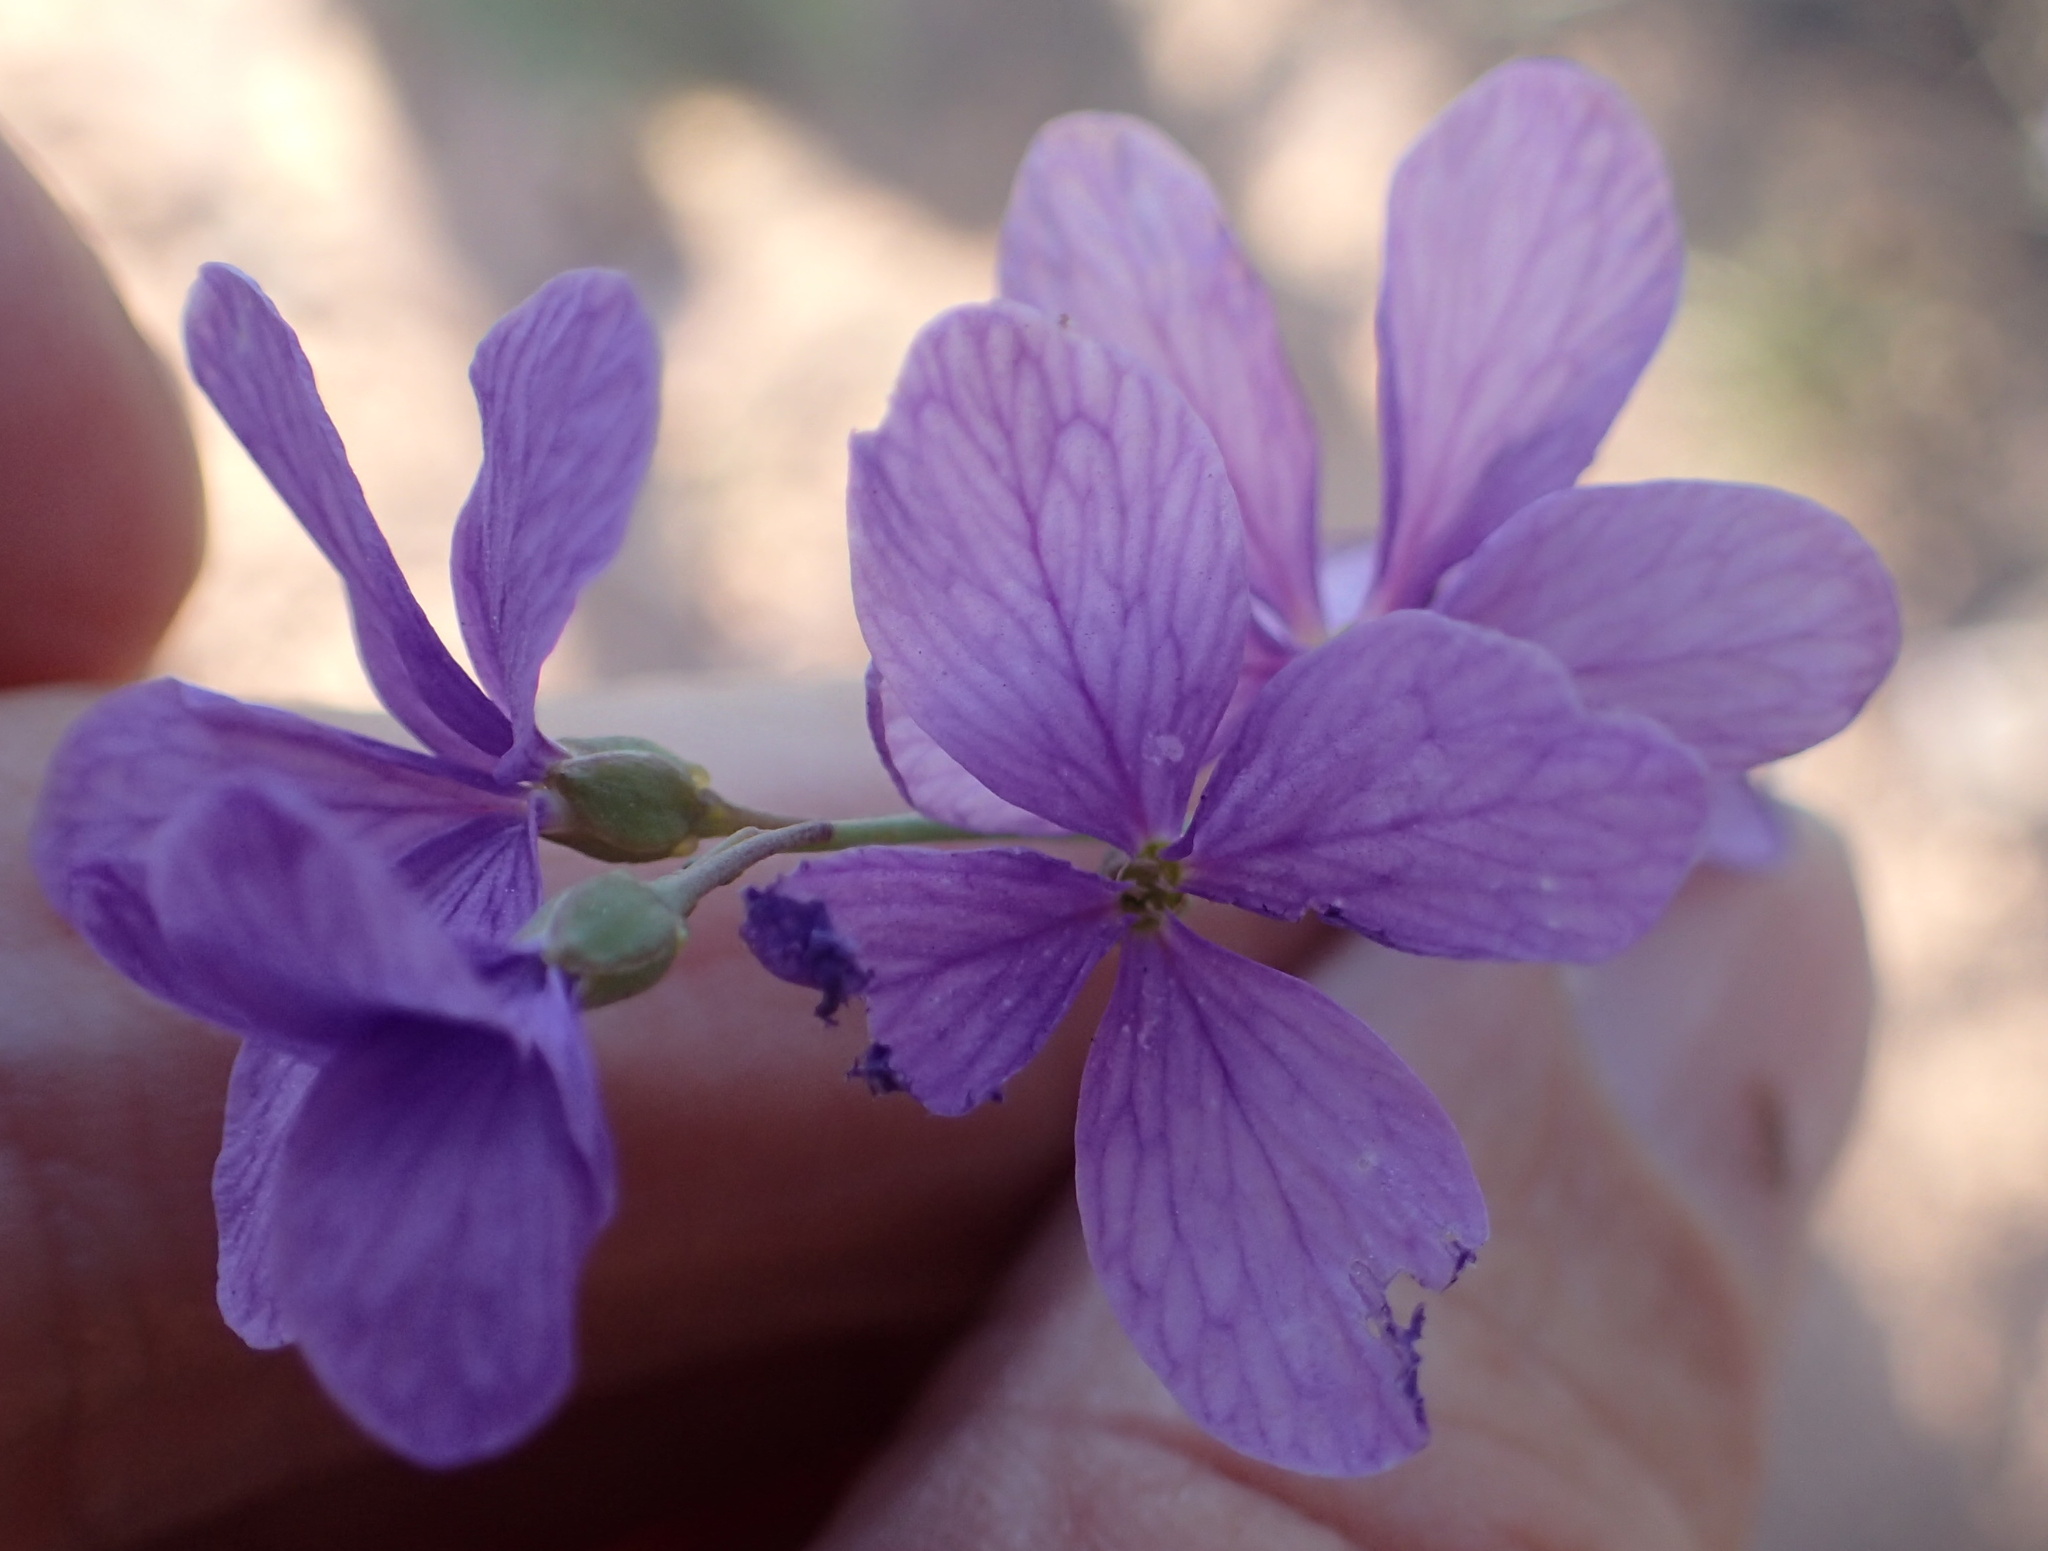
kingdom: Plantae
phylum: Tracheophyta
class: Magnoliopsida
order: Brassicales
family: Brassicaceae
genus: Heliophila
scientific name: Heliophila juncea
